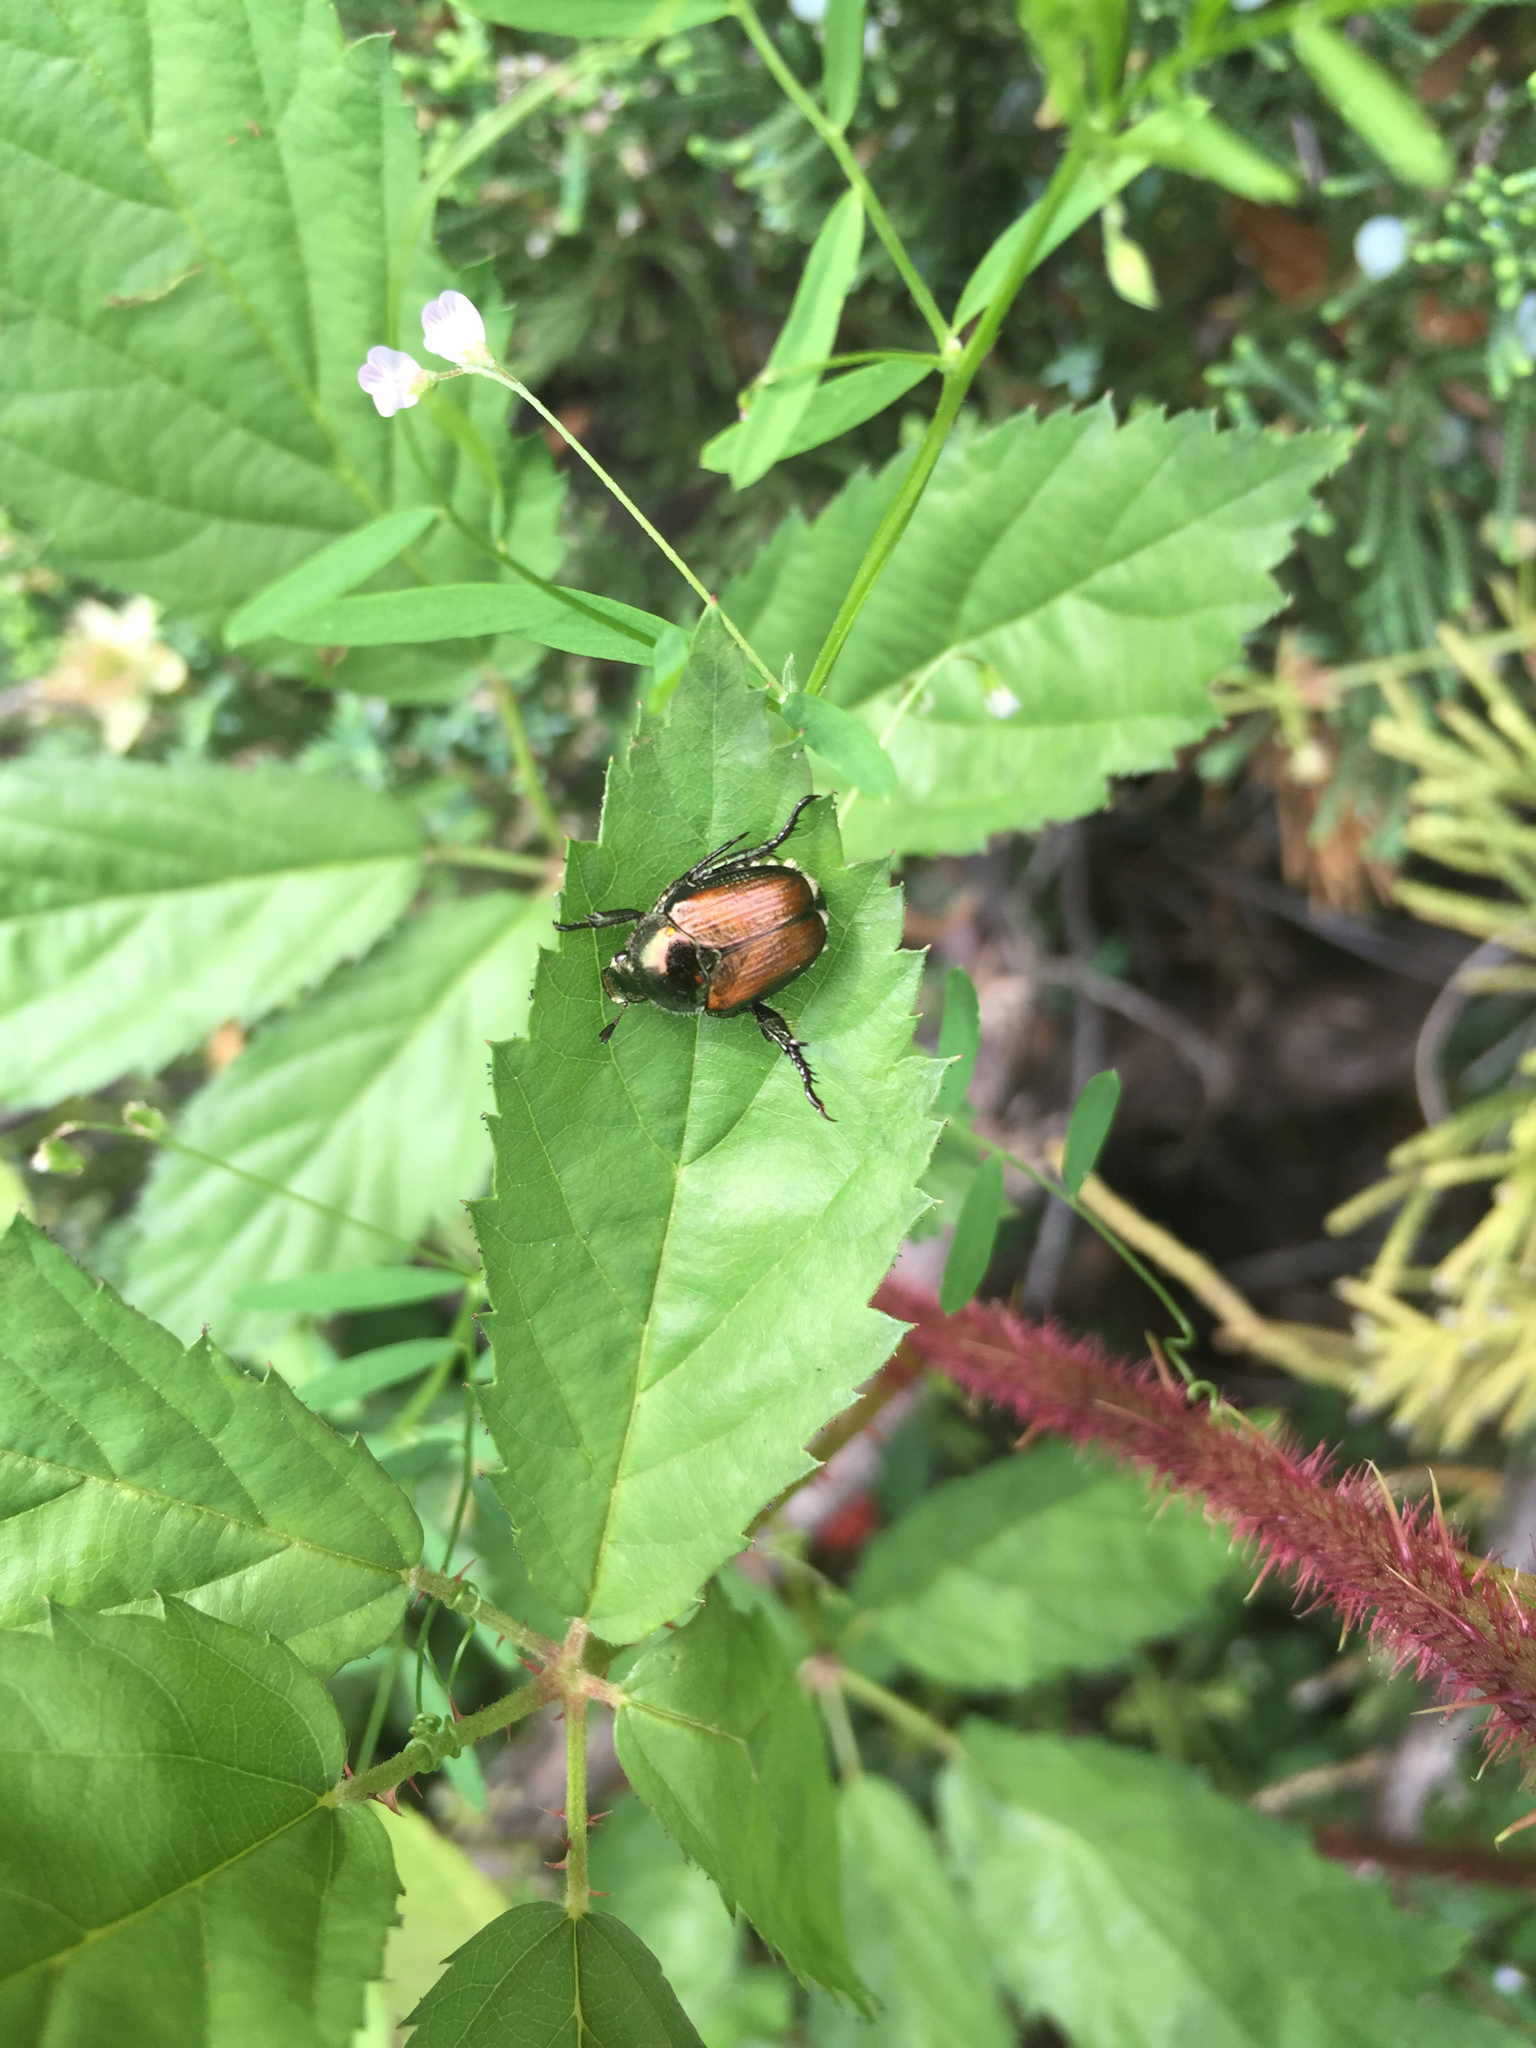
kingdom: Animalia
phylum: Arthropoda
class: Insecta
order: Coleoptera
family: Scarabaeidae
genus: Popillia
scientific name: Popillia japonica
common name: Japanese beetle
